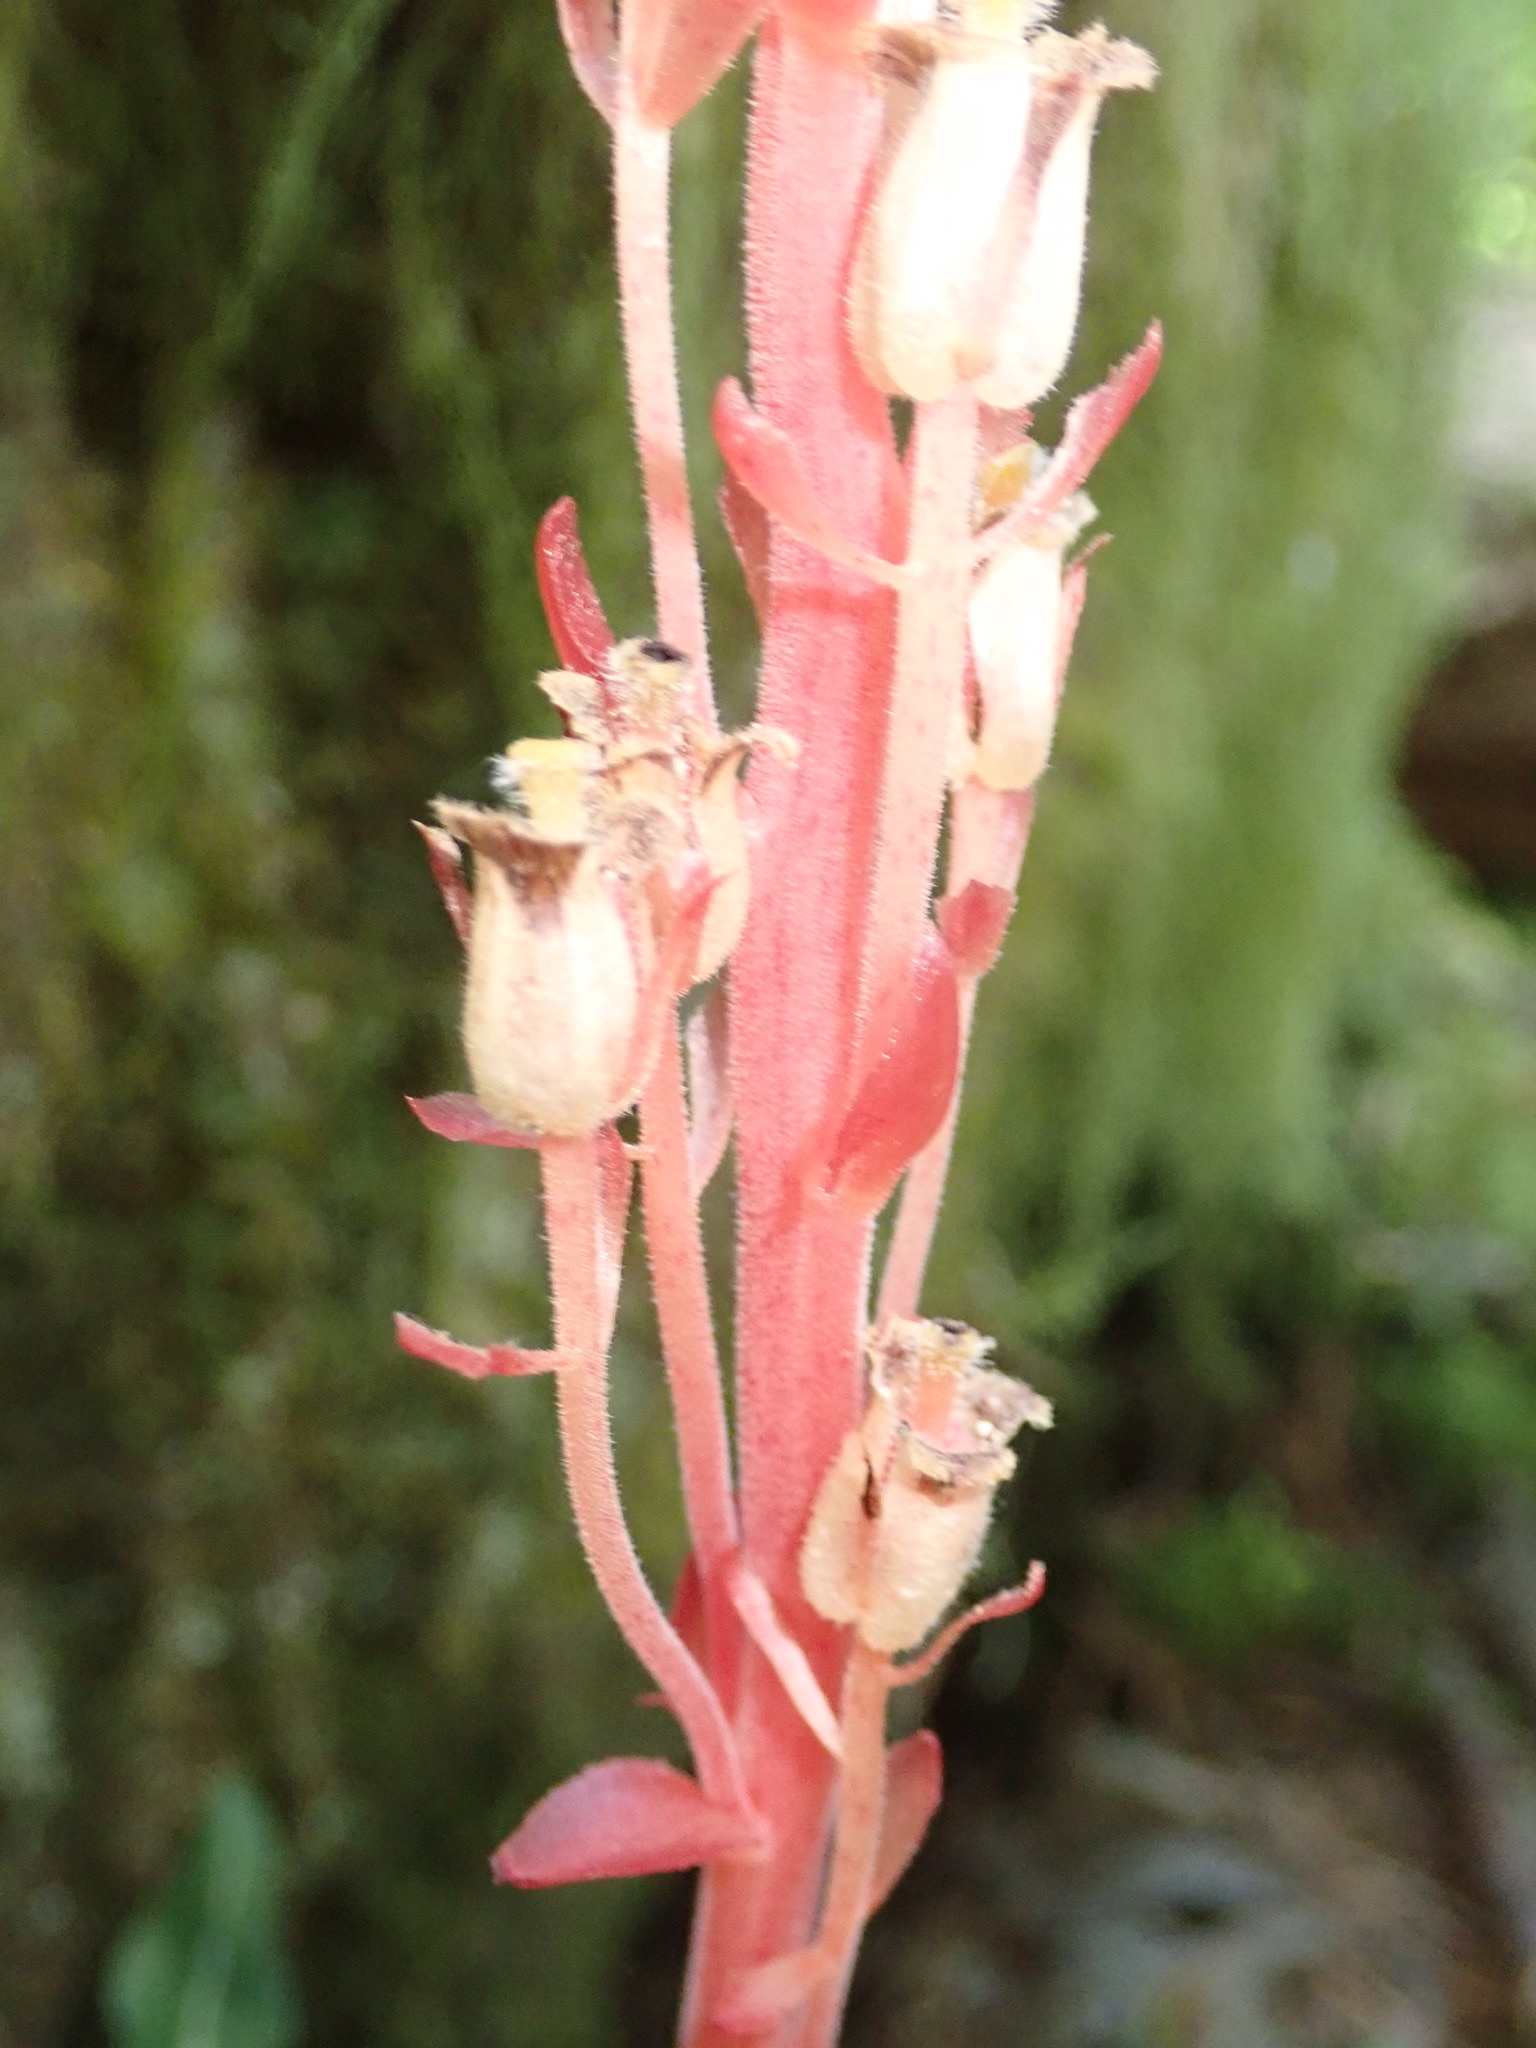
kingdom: Plantae
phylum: Tracheophyta
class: Magnoliopsida
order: Ericales
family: Ericaceae
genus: Hypopitys
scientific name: Hypopitys monotropa
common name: Yellow bird's-nest
